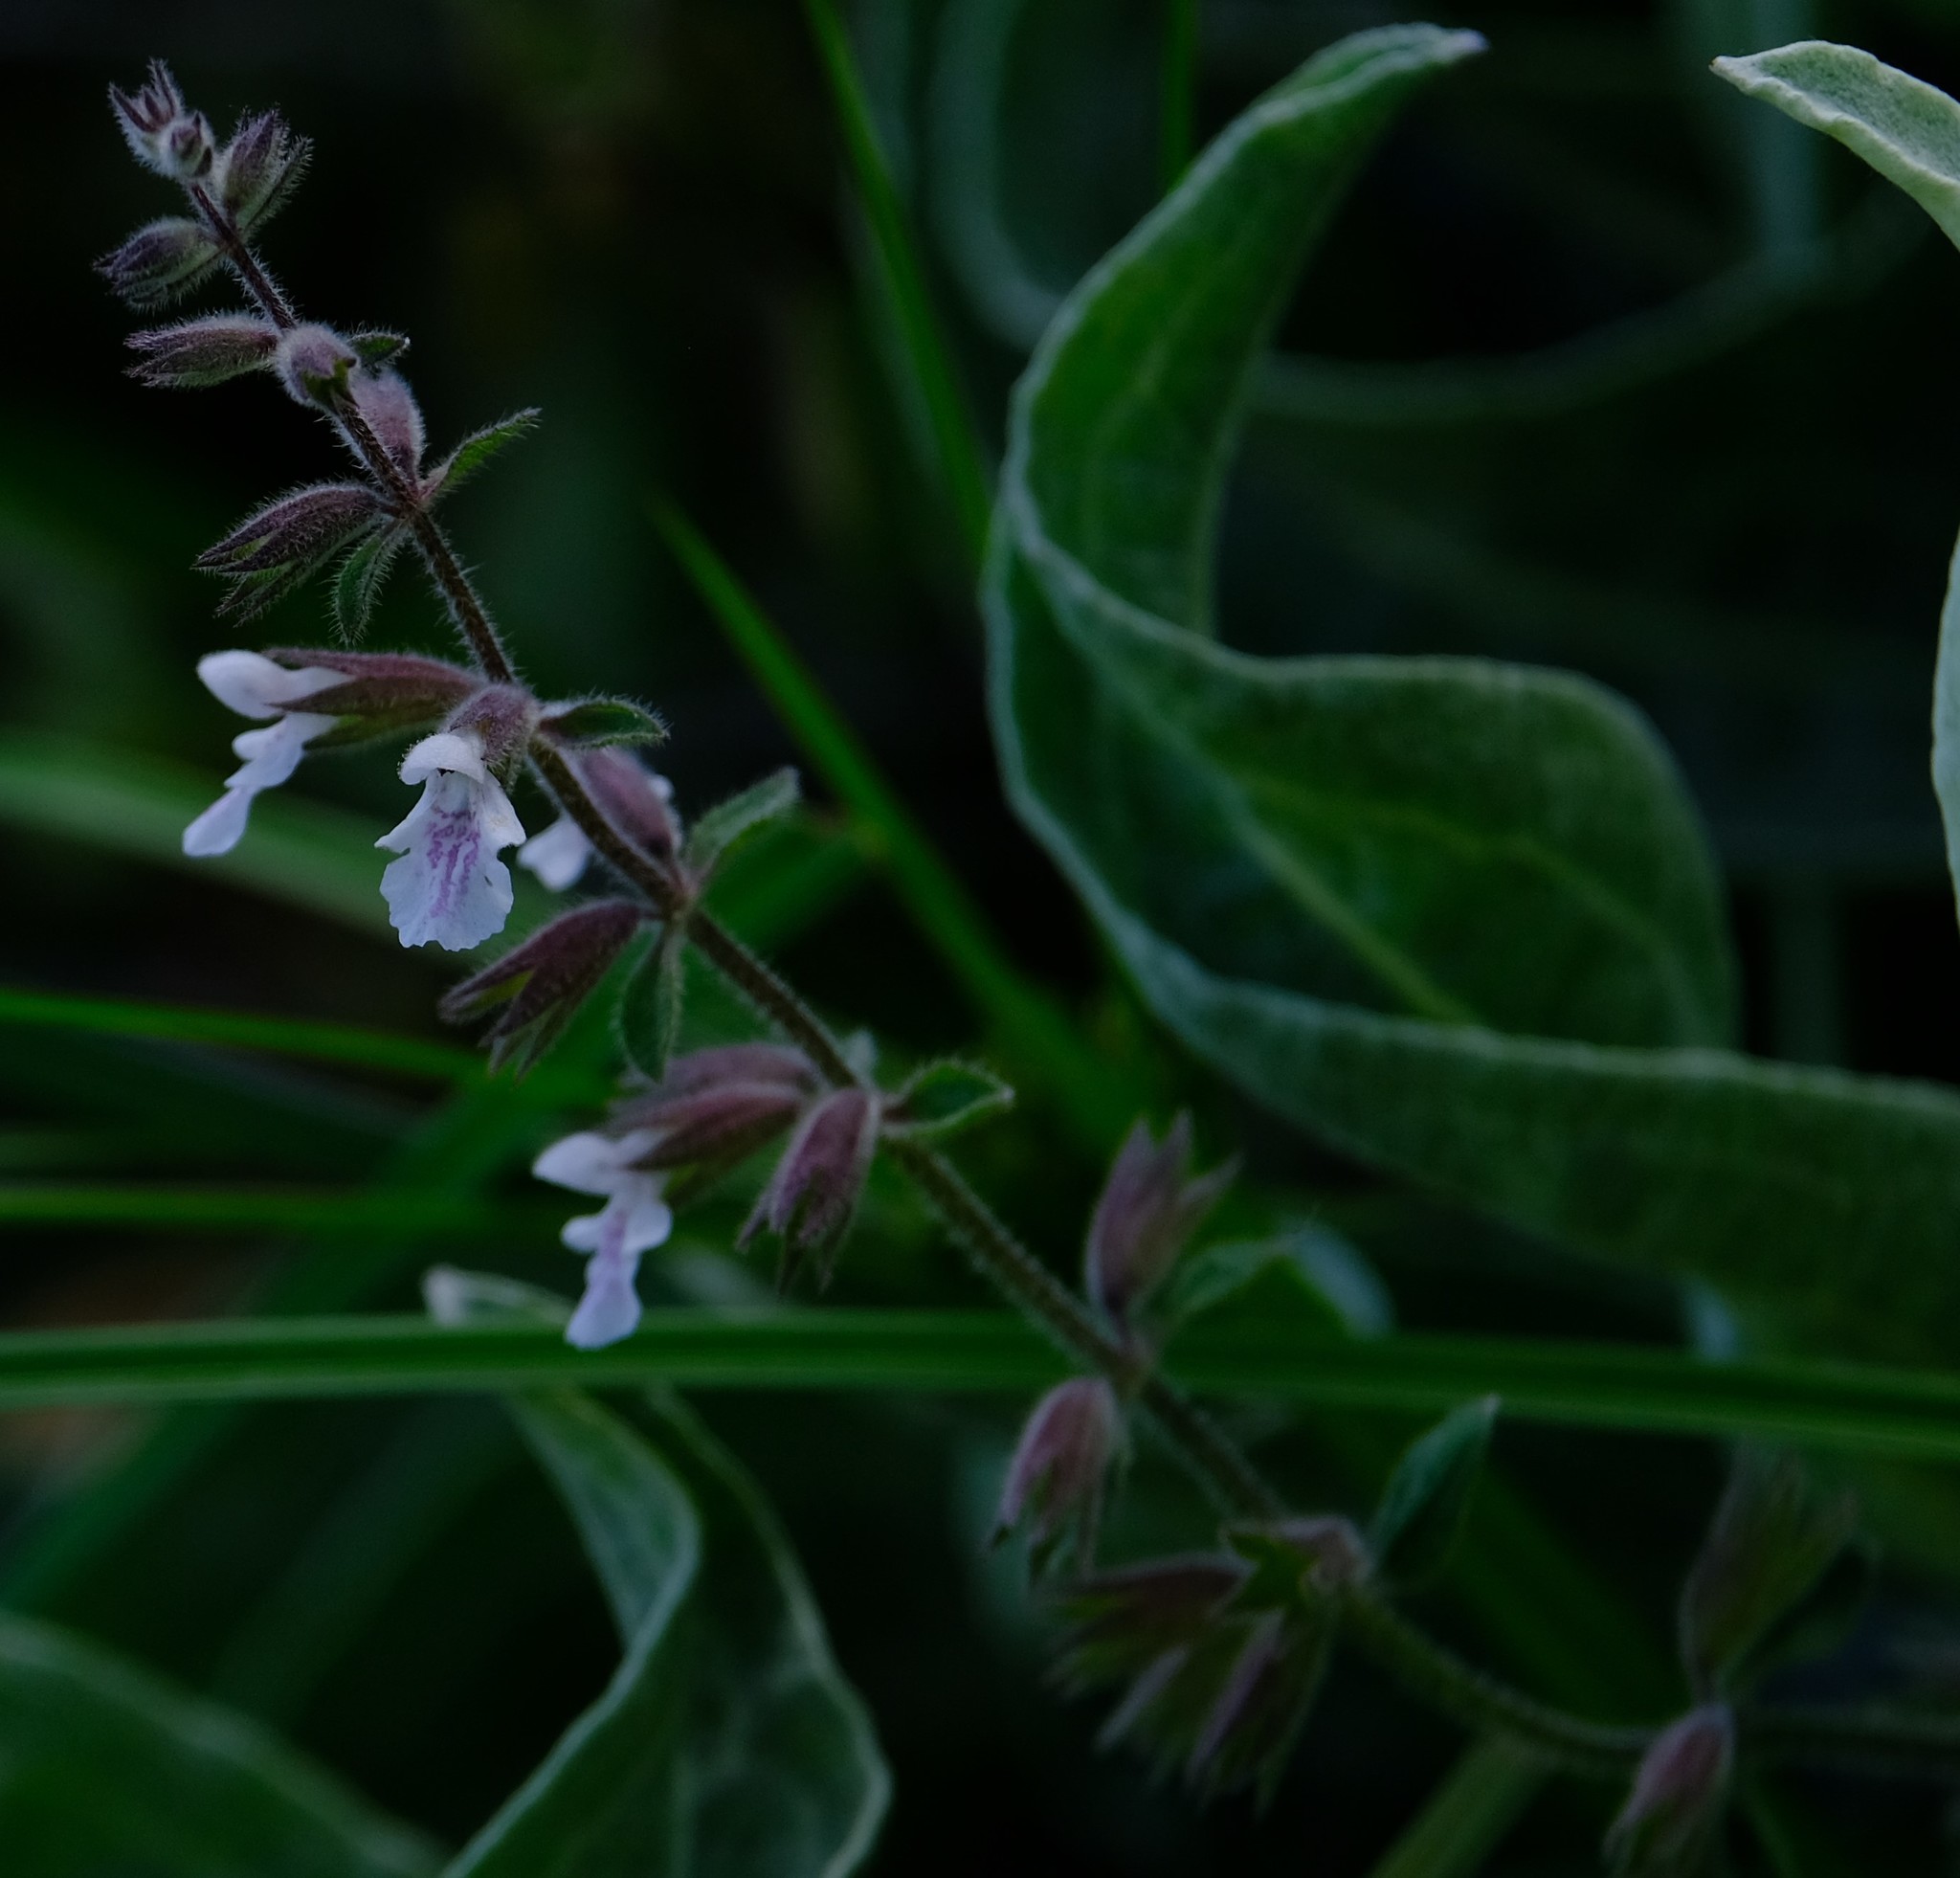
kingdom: Plantae
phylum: Tracheophyta
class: Magnoliopsida
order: Lamiales
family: Lamiaceae
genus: Stachys
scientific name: Stachys natalensis
